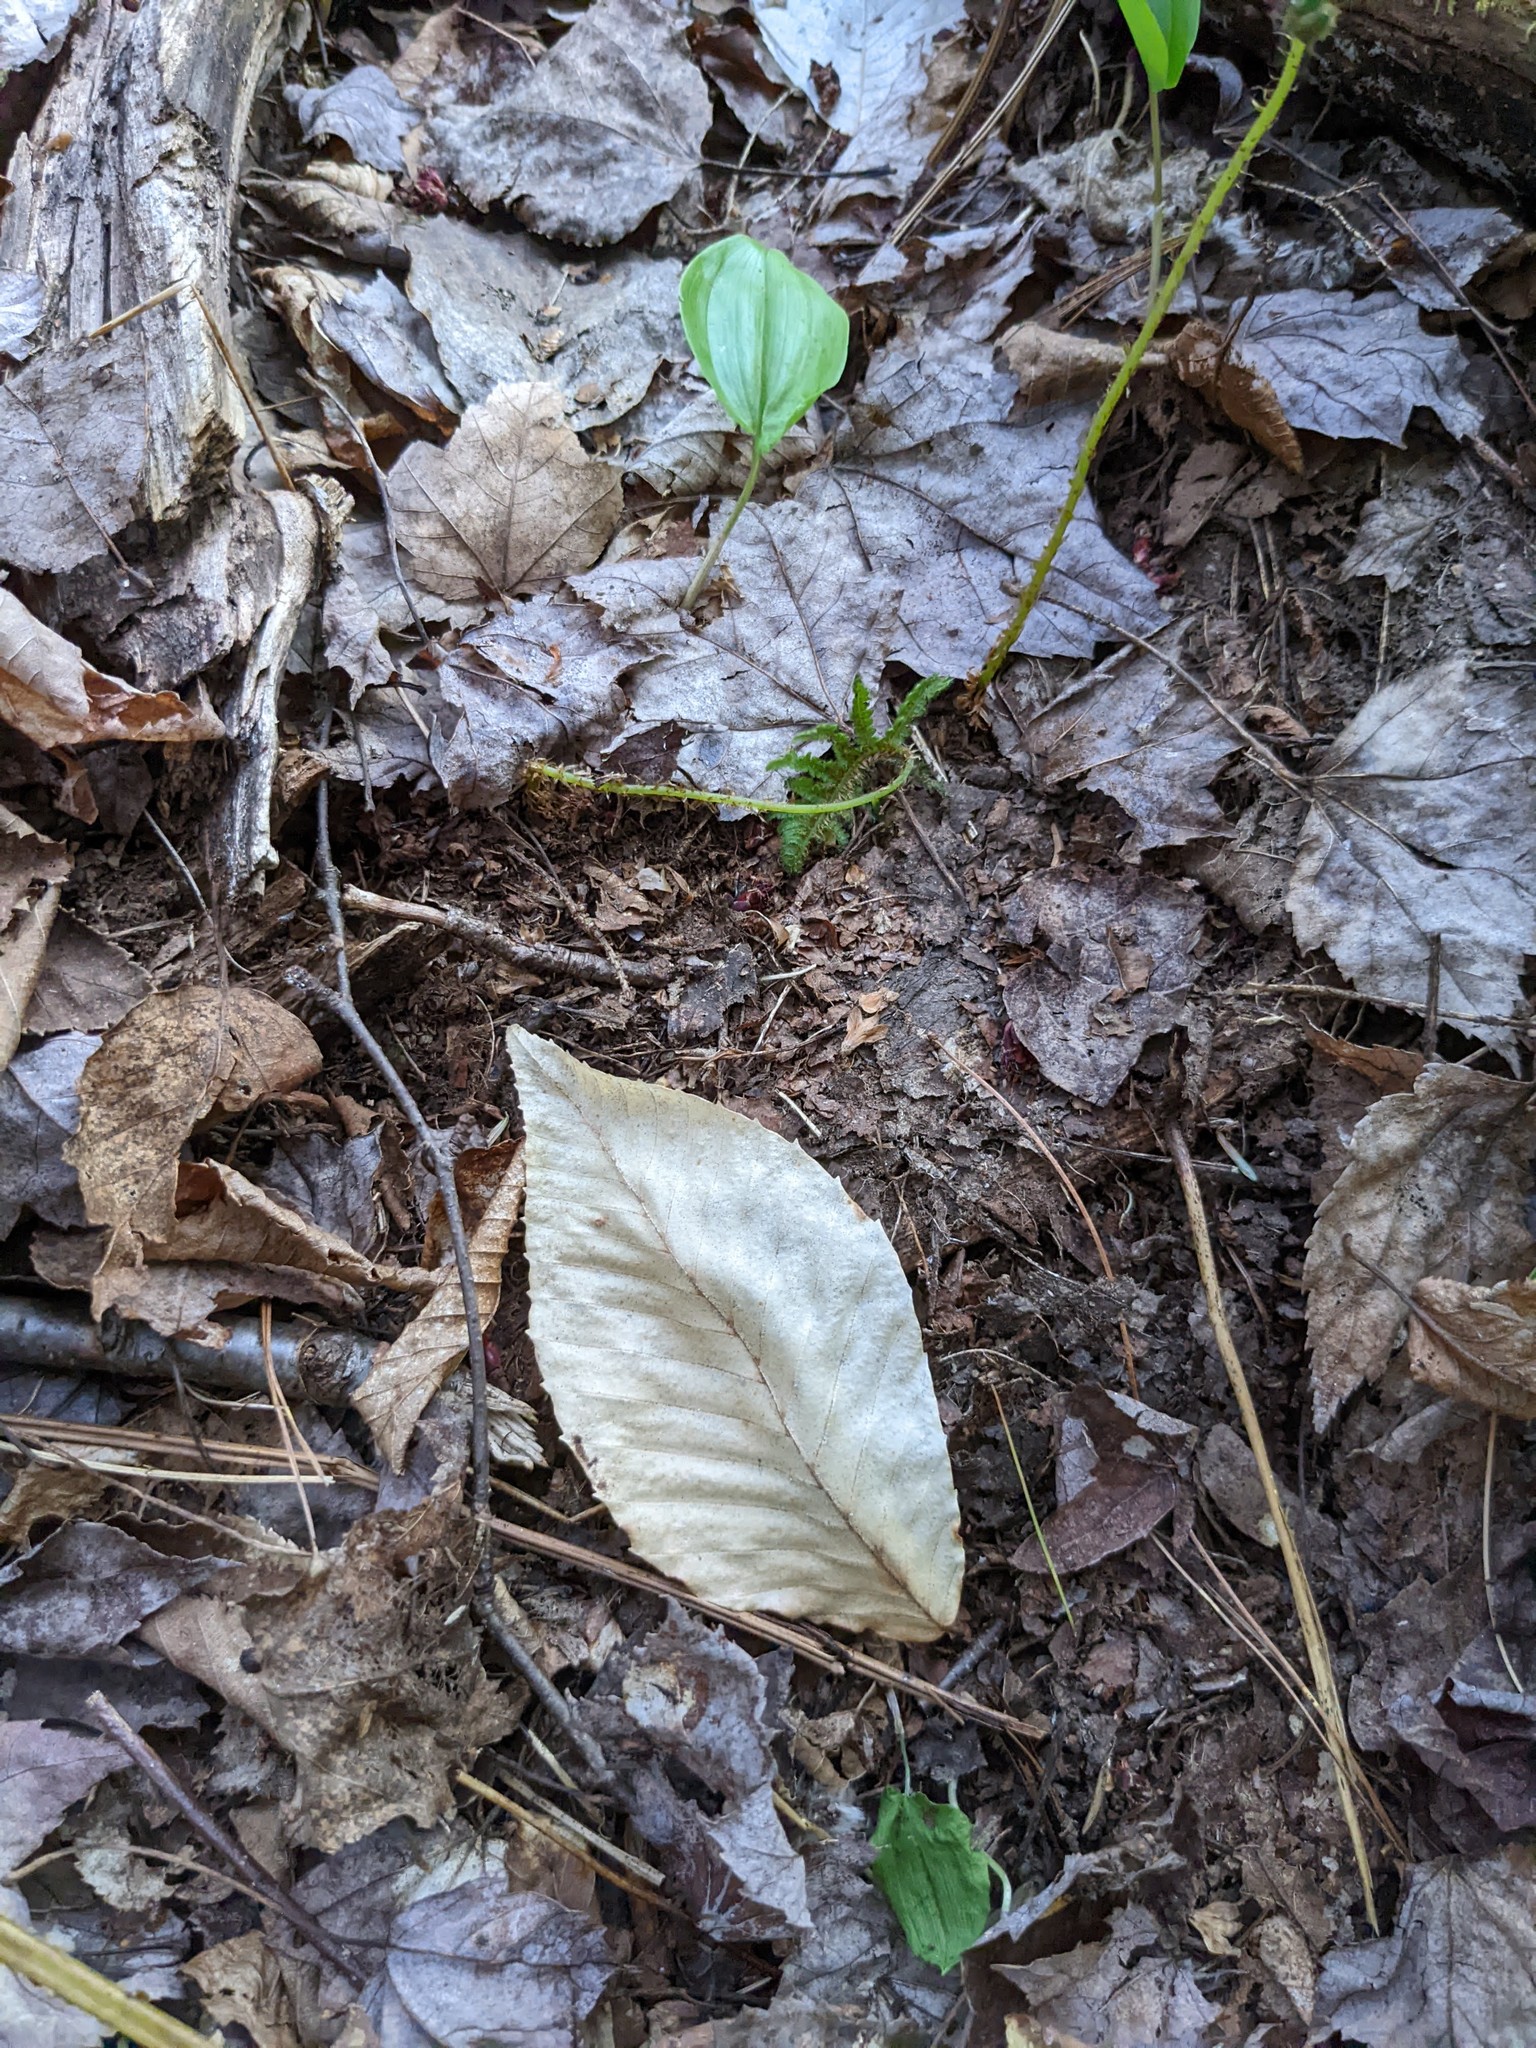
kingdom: Plantae
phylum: Tracheophyta
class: Magnoliopsida
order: Fagales
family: Fagaceae
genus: Fagus
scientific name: Fagus grandifolia
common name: American beech
